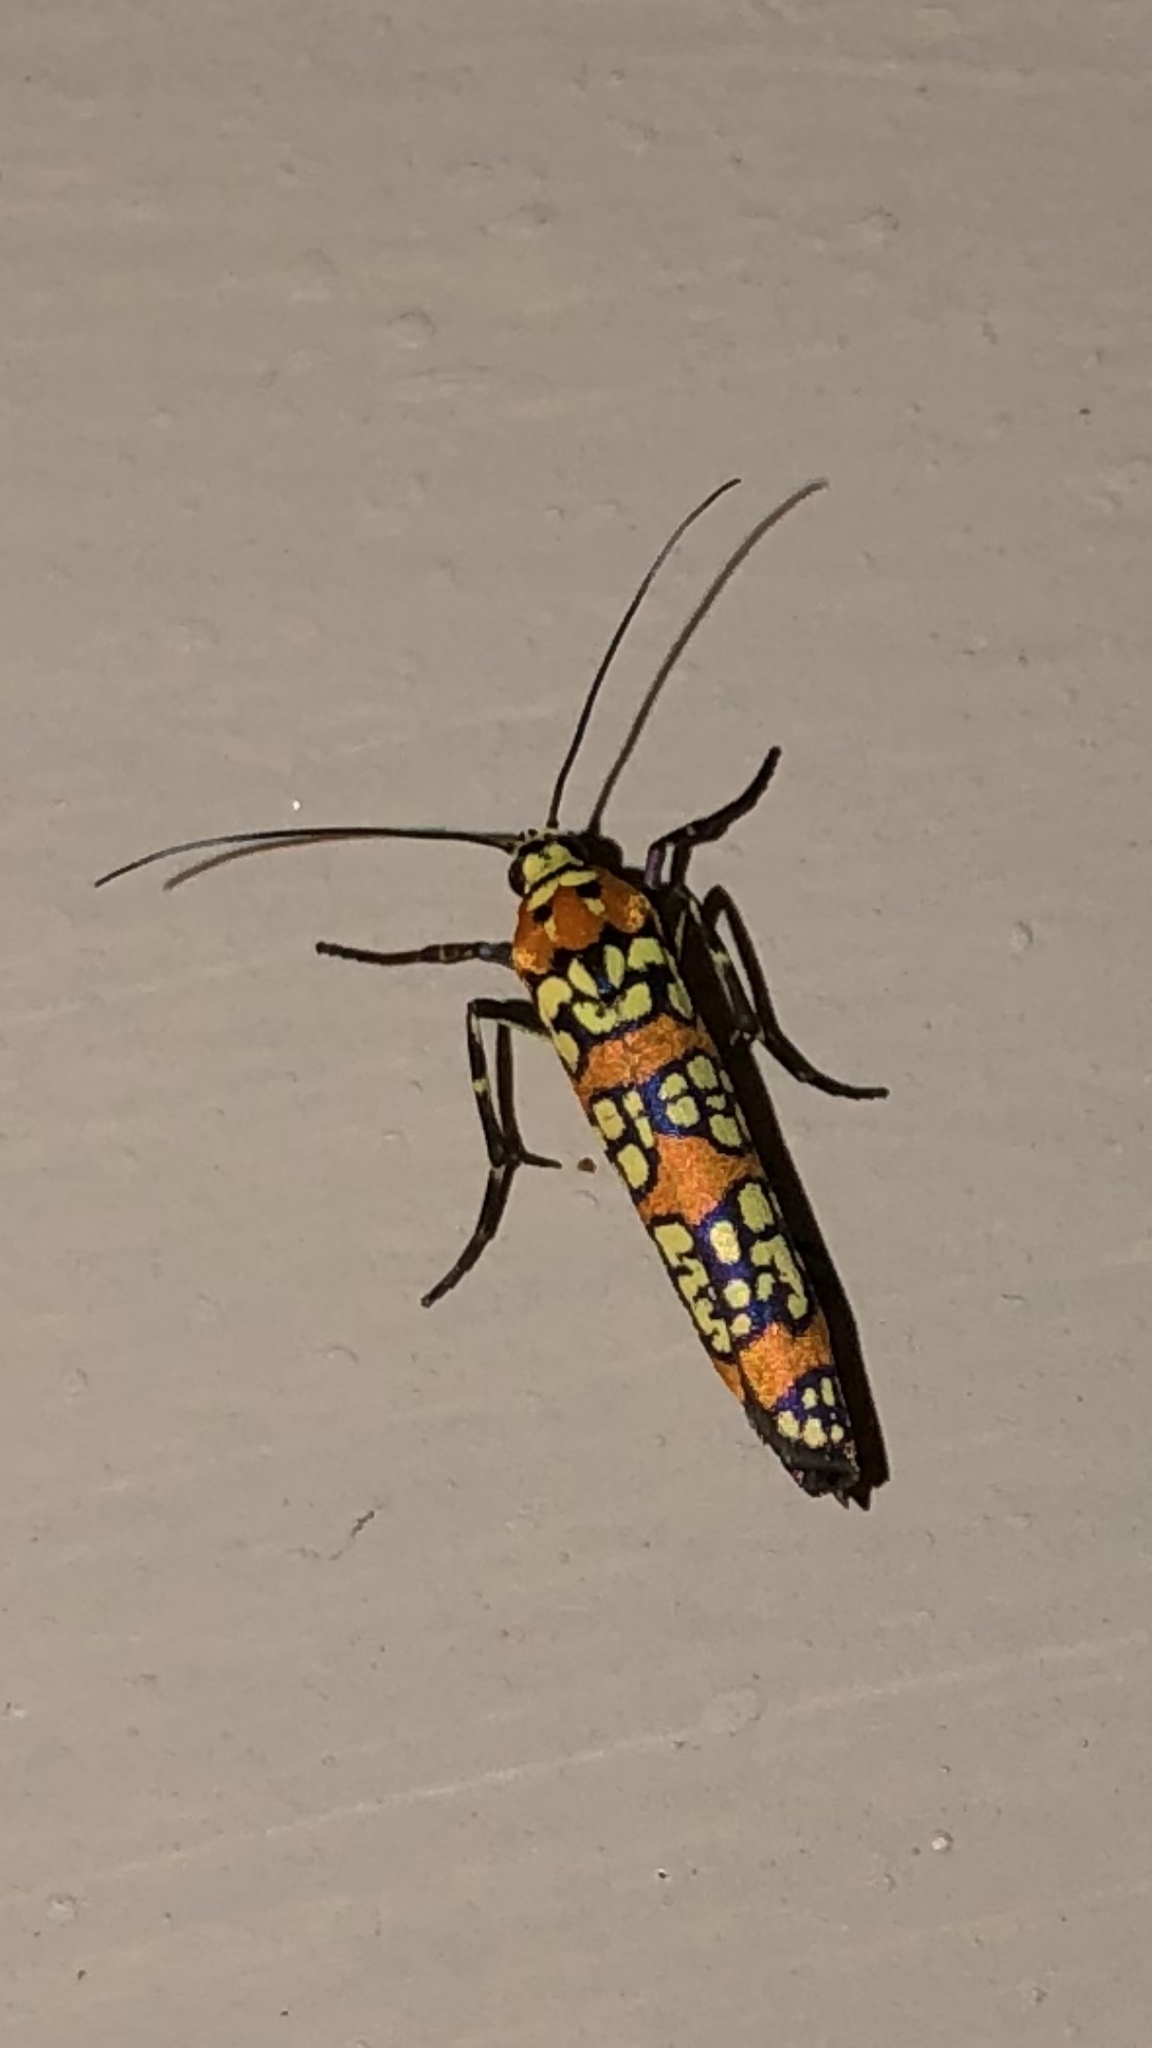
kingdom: Animalia
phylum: Arthropoda
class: Insecta
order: Lepidoptera
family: Attevidae
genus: Atteva
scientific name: Atteva punctella
